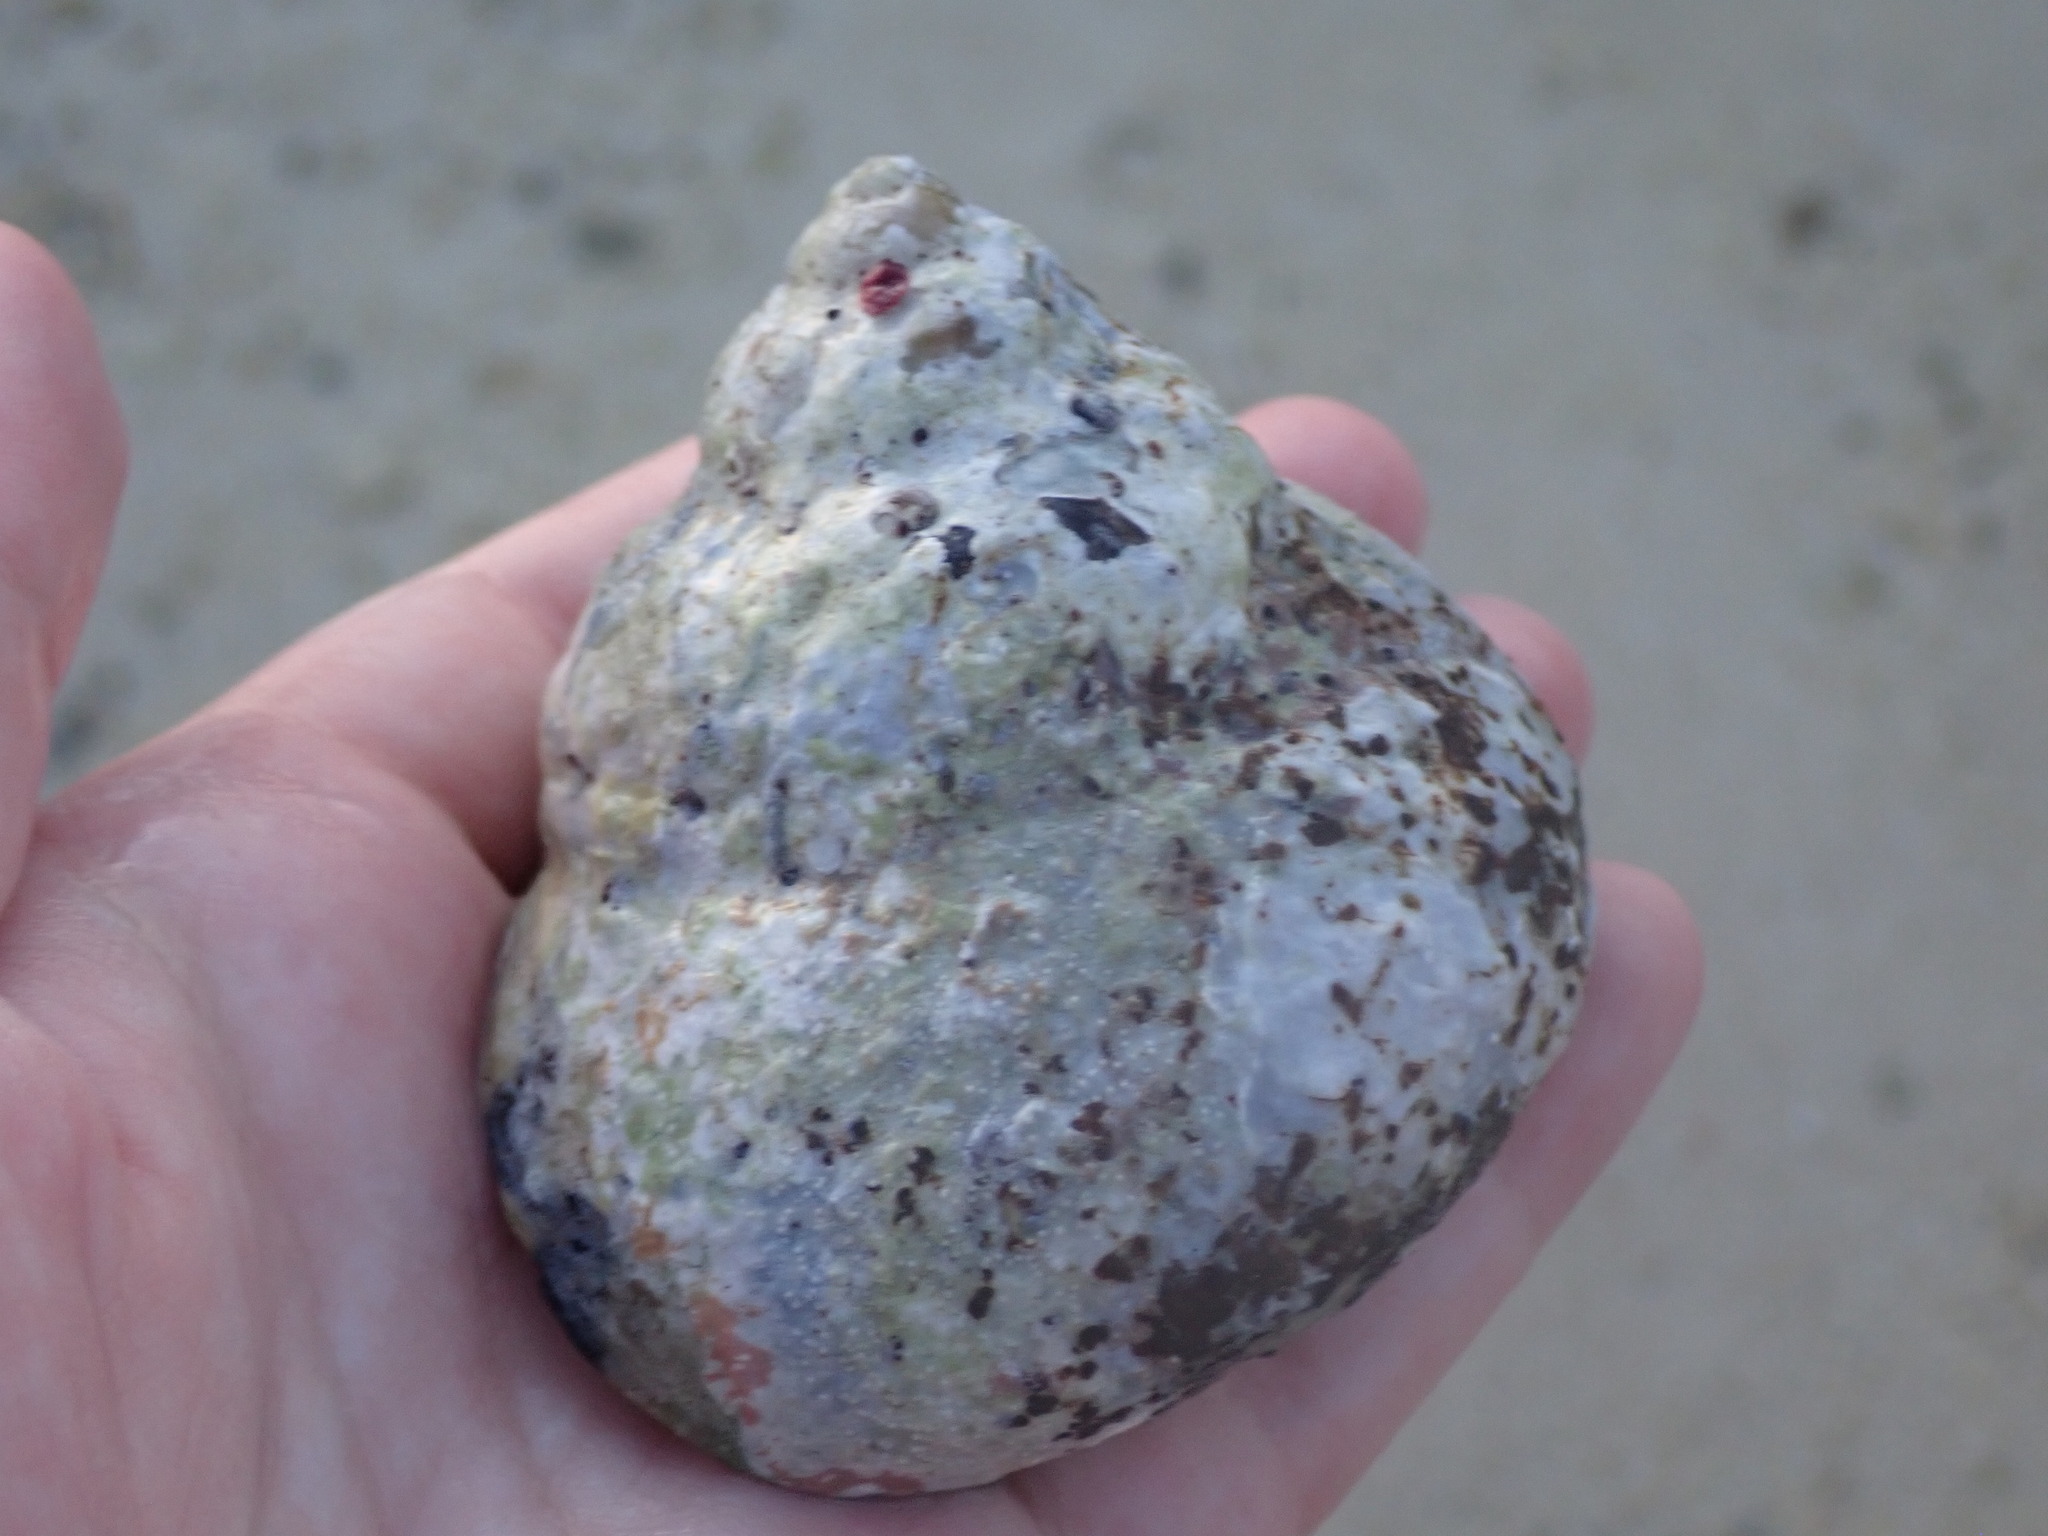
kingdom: Animalia
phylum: Mollusca
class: Gastropoda
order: Trochida
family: Tegulidae
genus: Cittarium
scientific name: Cittarium pica
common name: West indian topshell
